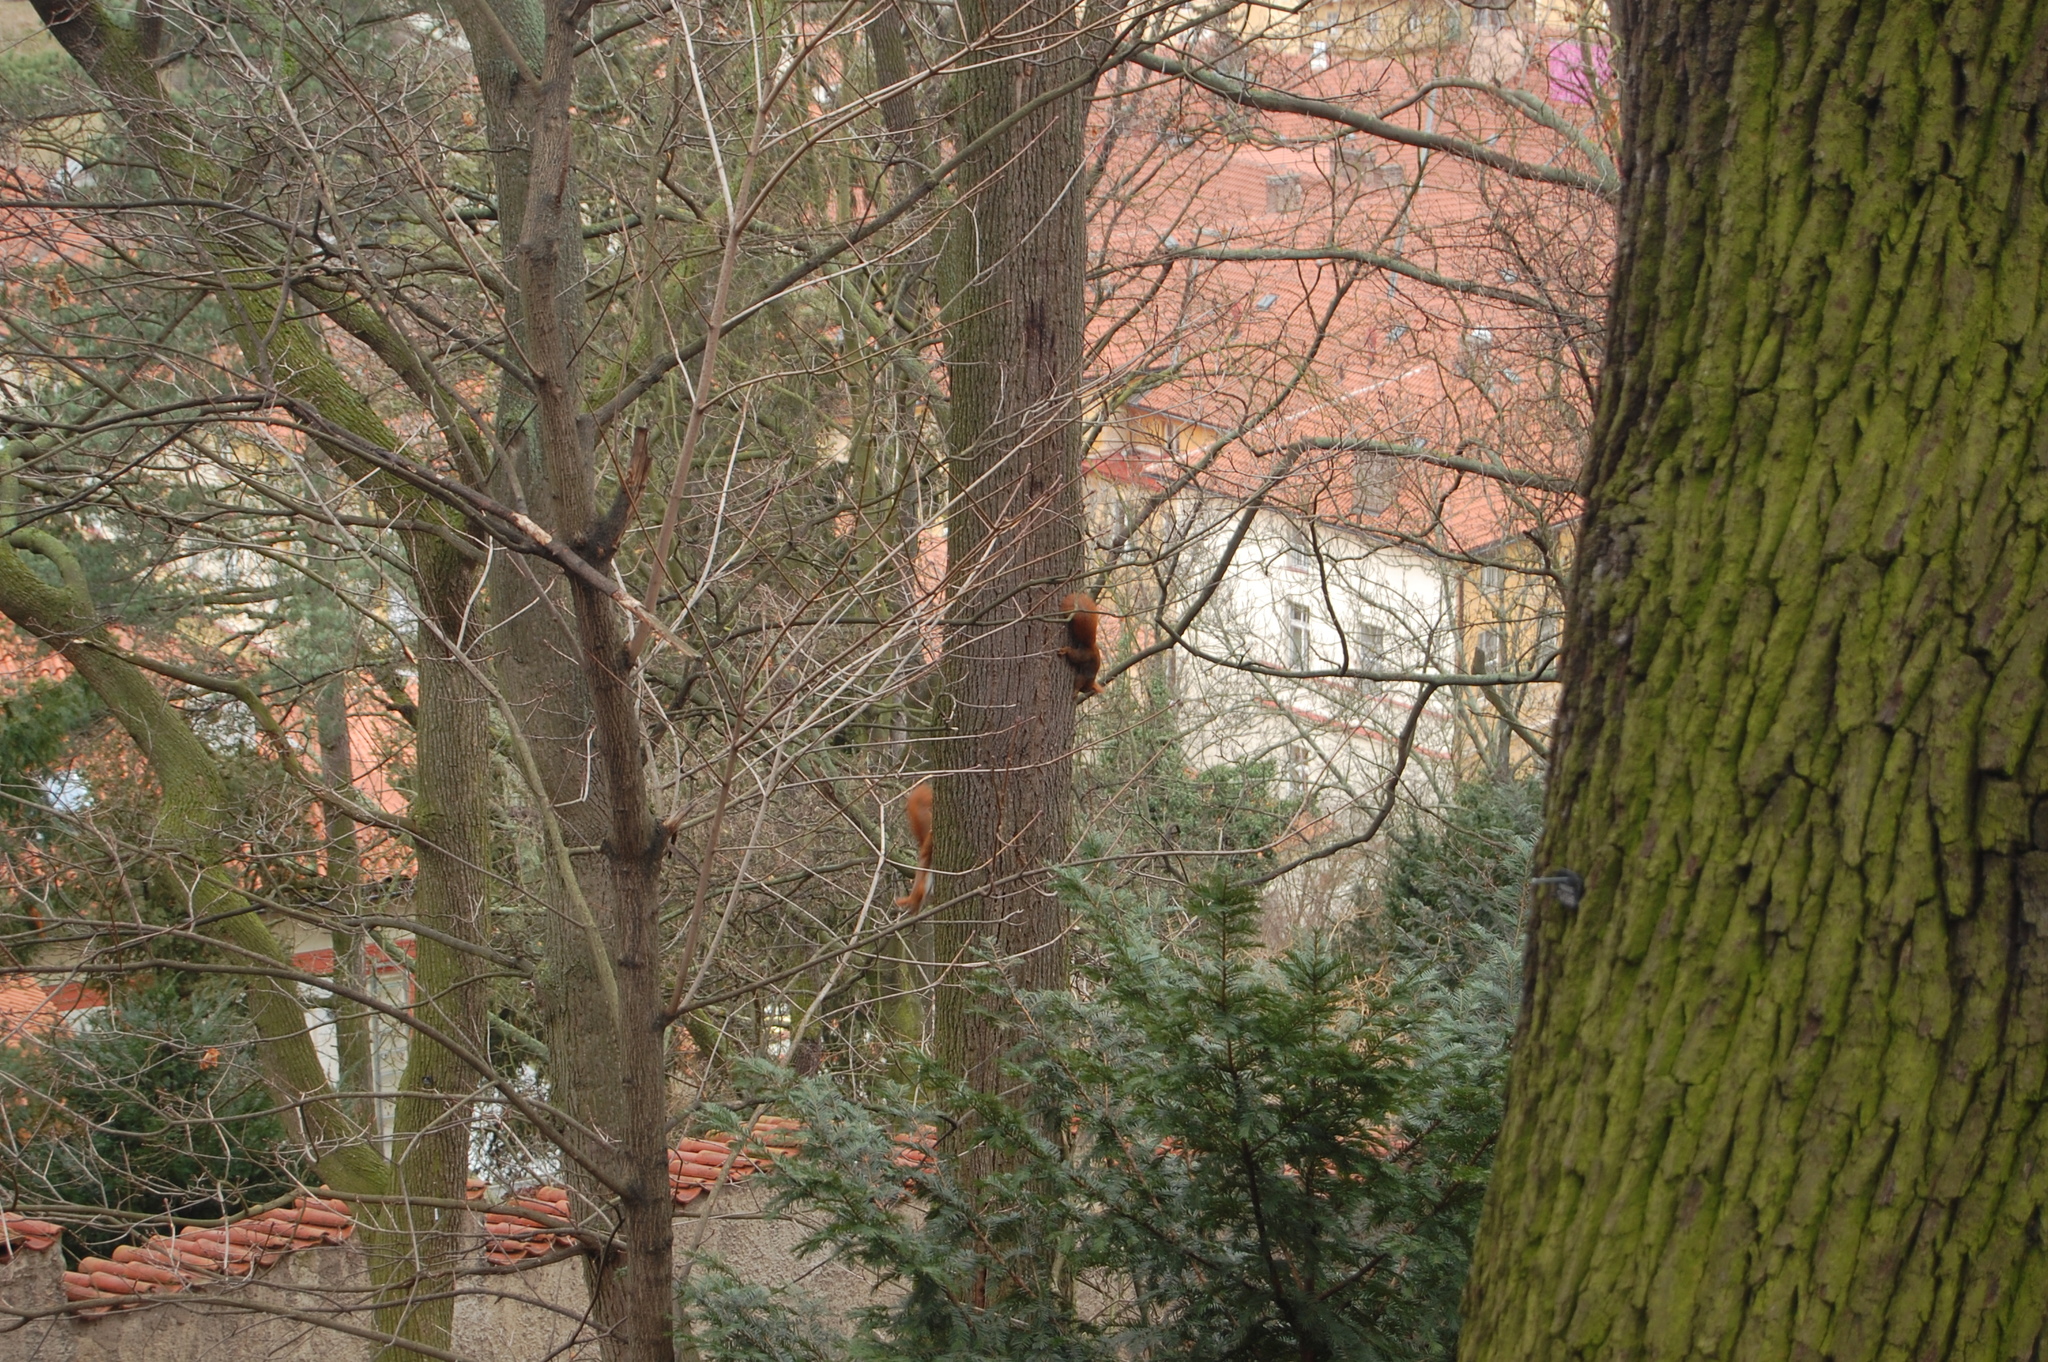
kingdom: Animalia
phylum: Chordata
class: Mammalia
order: Rodentia
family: Sciuridae
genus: Sciurus
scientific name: Sciurus vulgaris
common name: Eurasian red squirrel
